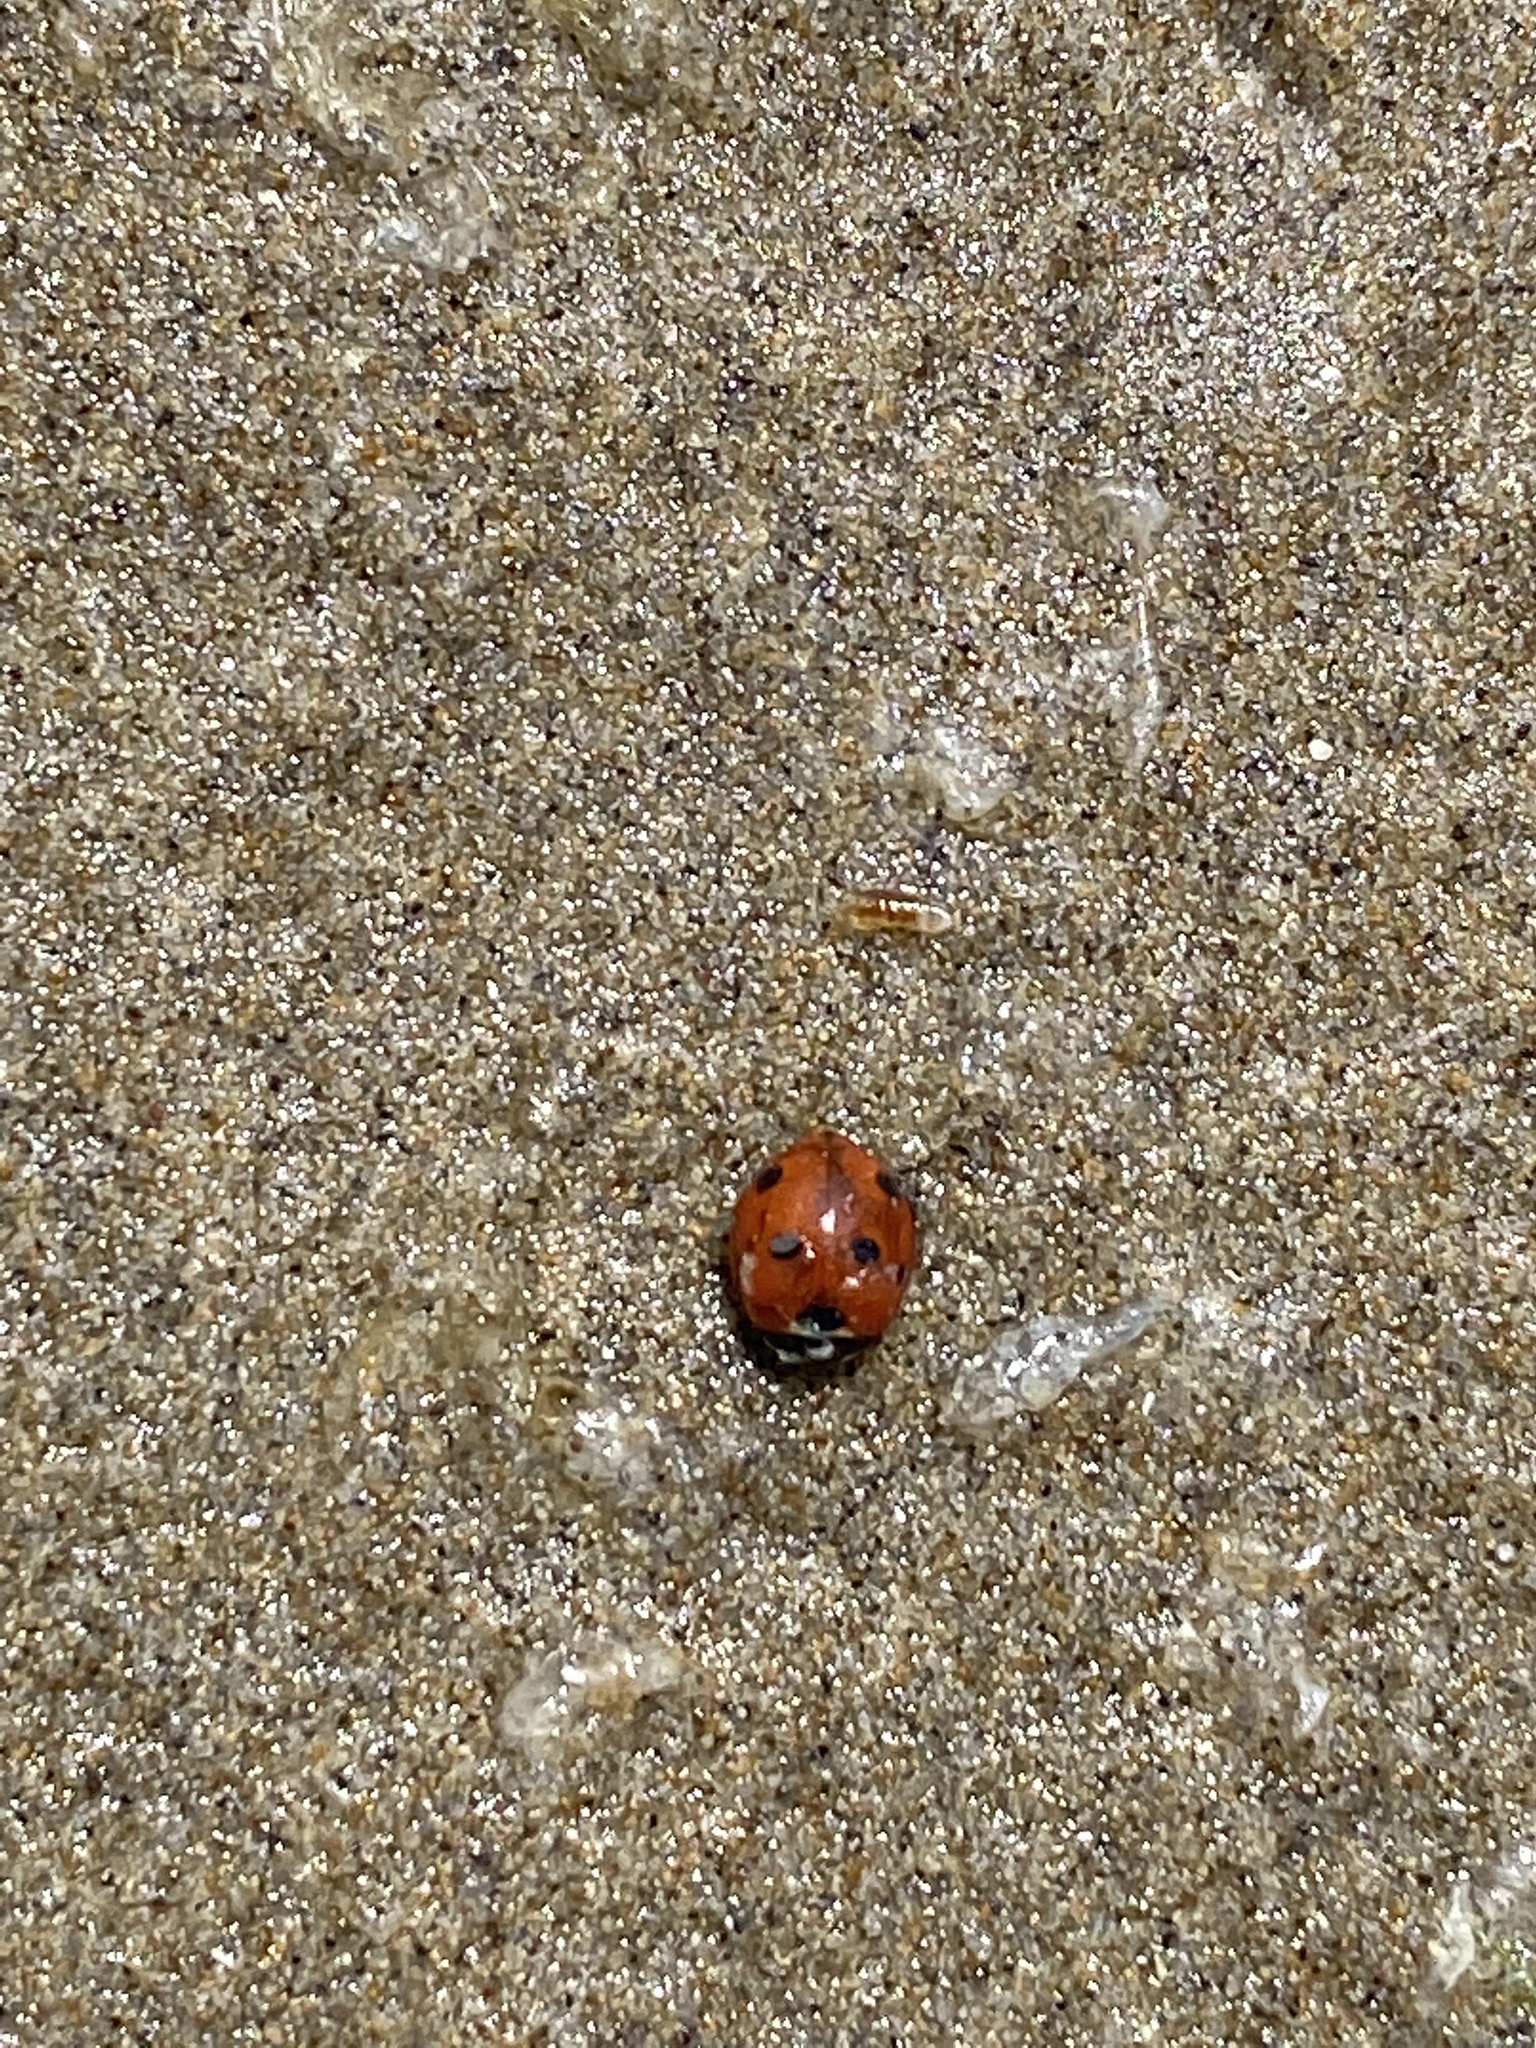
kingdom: Animalia
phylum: Arthropoda
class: Insecta
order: Coleoptera
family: Coccinellidae
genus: Coccinella
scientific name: Coccinella septempunctata
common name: Sevenspotted lady beetle
